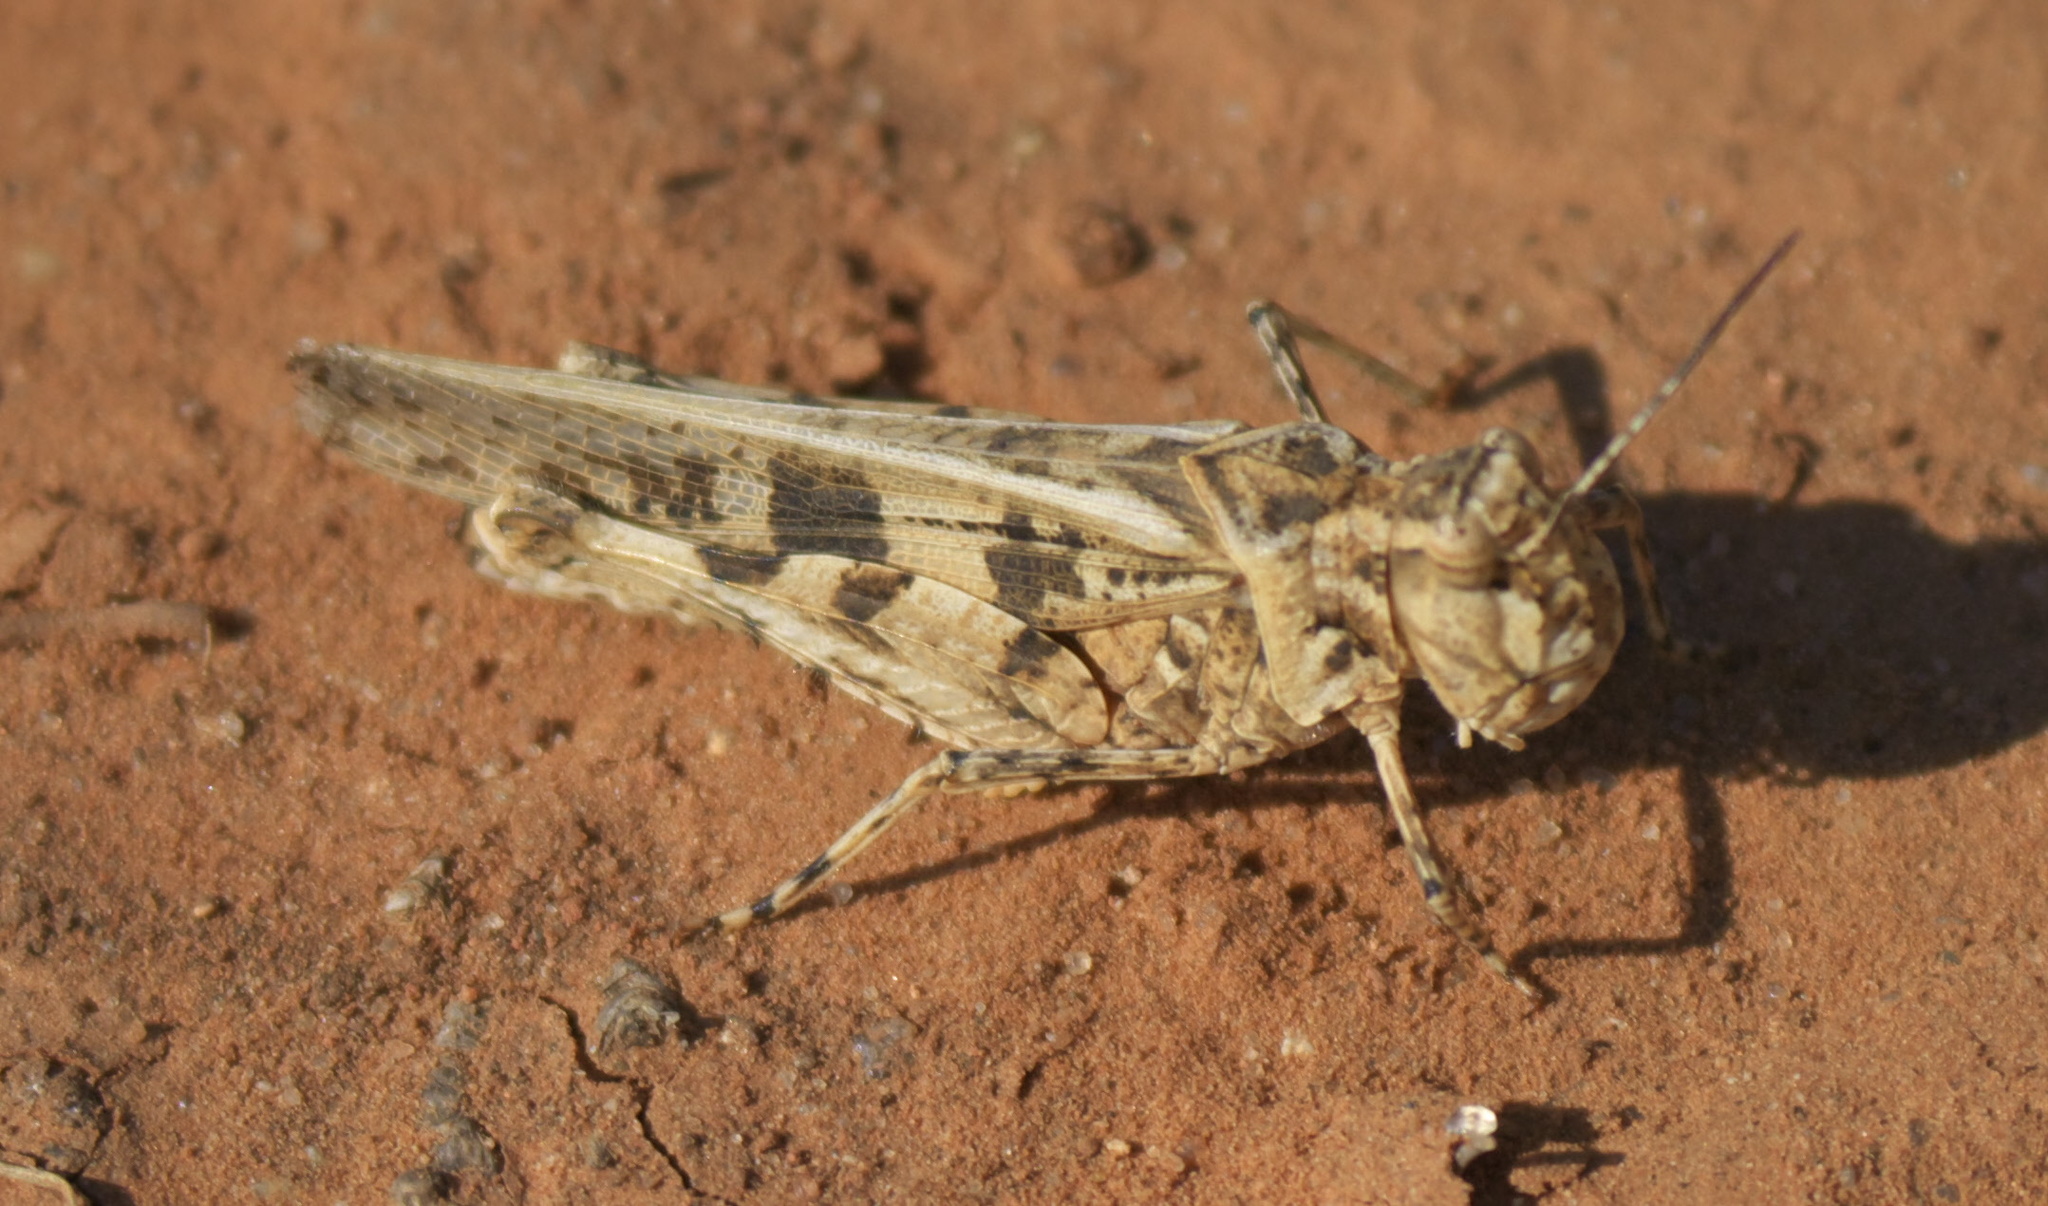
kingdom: Animalia
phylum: Arthropoda
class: Insecta
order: Orthoptera
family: Acrididae
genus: Trachyrhachys
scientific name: Trachyrhachys kiowa
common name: Kiowa grasshopper
